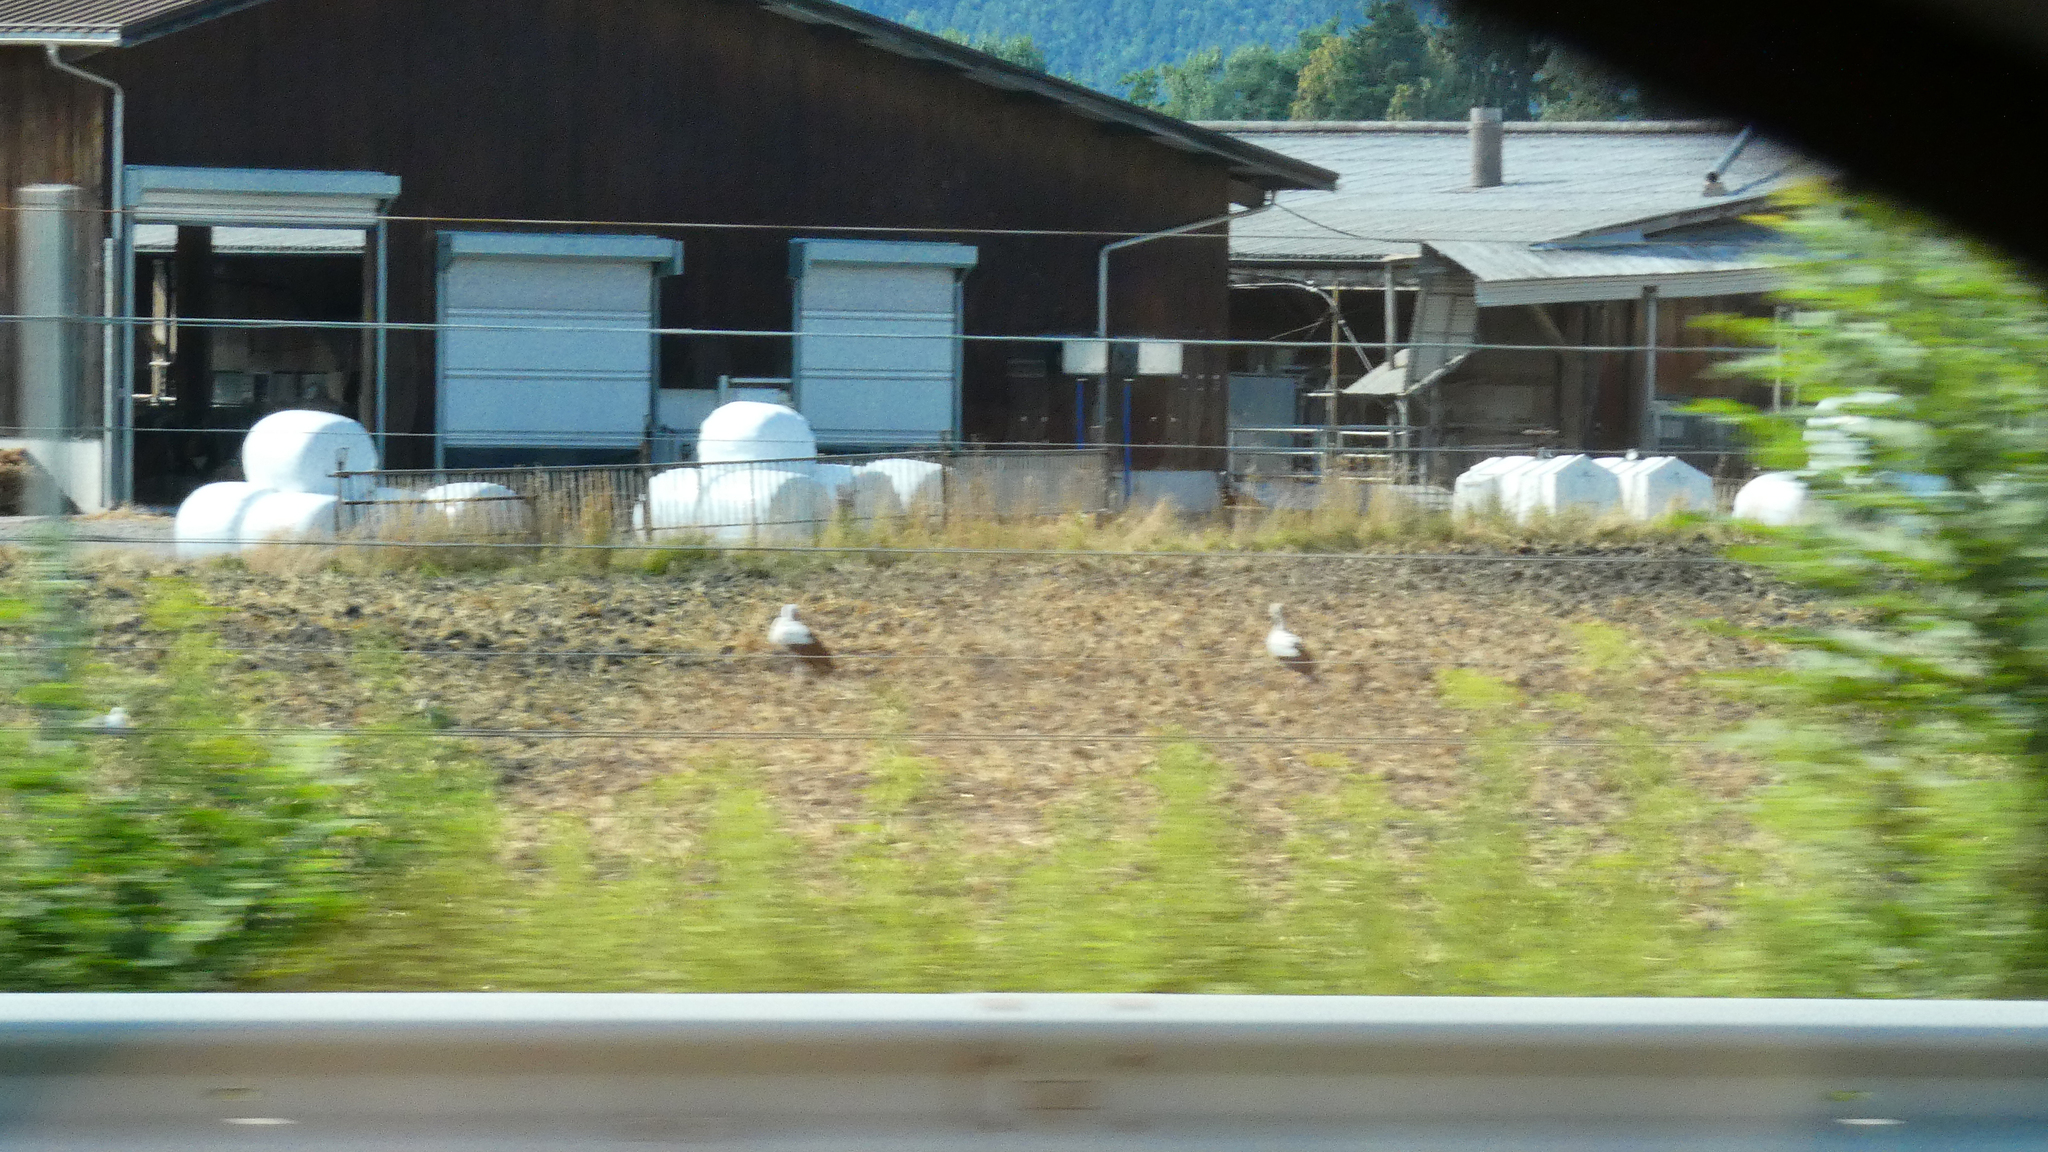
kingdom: Animalia
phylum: Chordata
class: Aves
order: Ciconiiformes
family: Ciconiidae
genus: Ciconia
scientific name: Ciconia ciconia
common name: White stork
